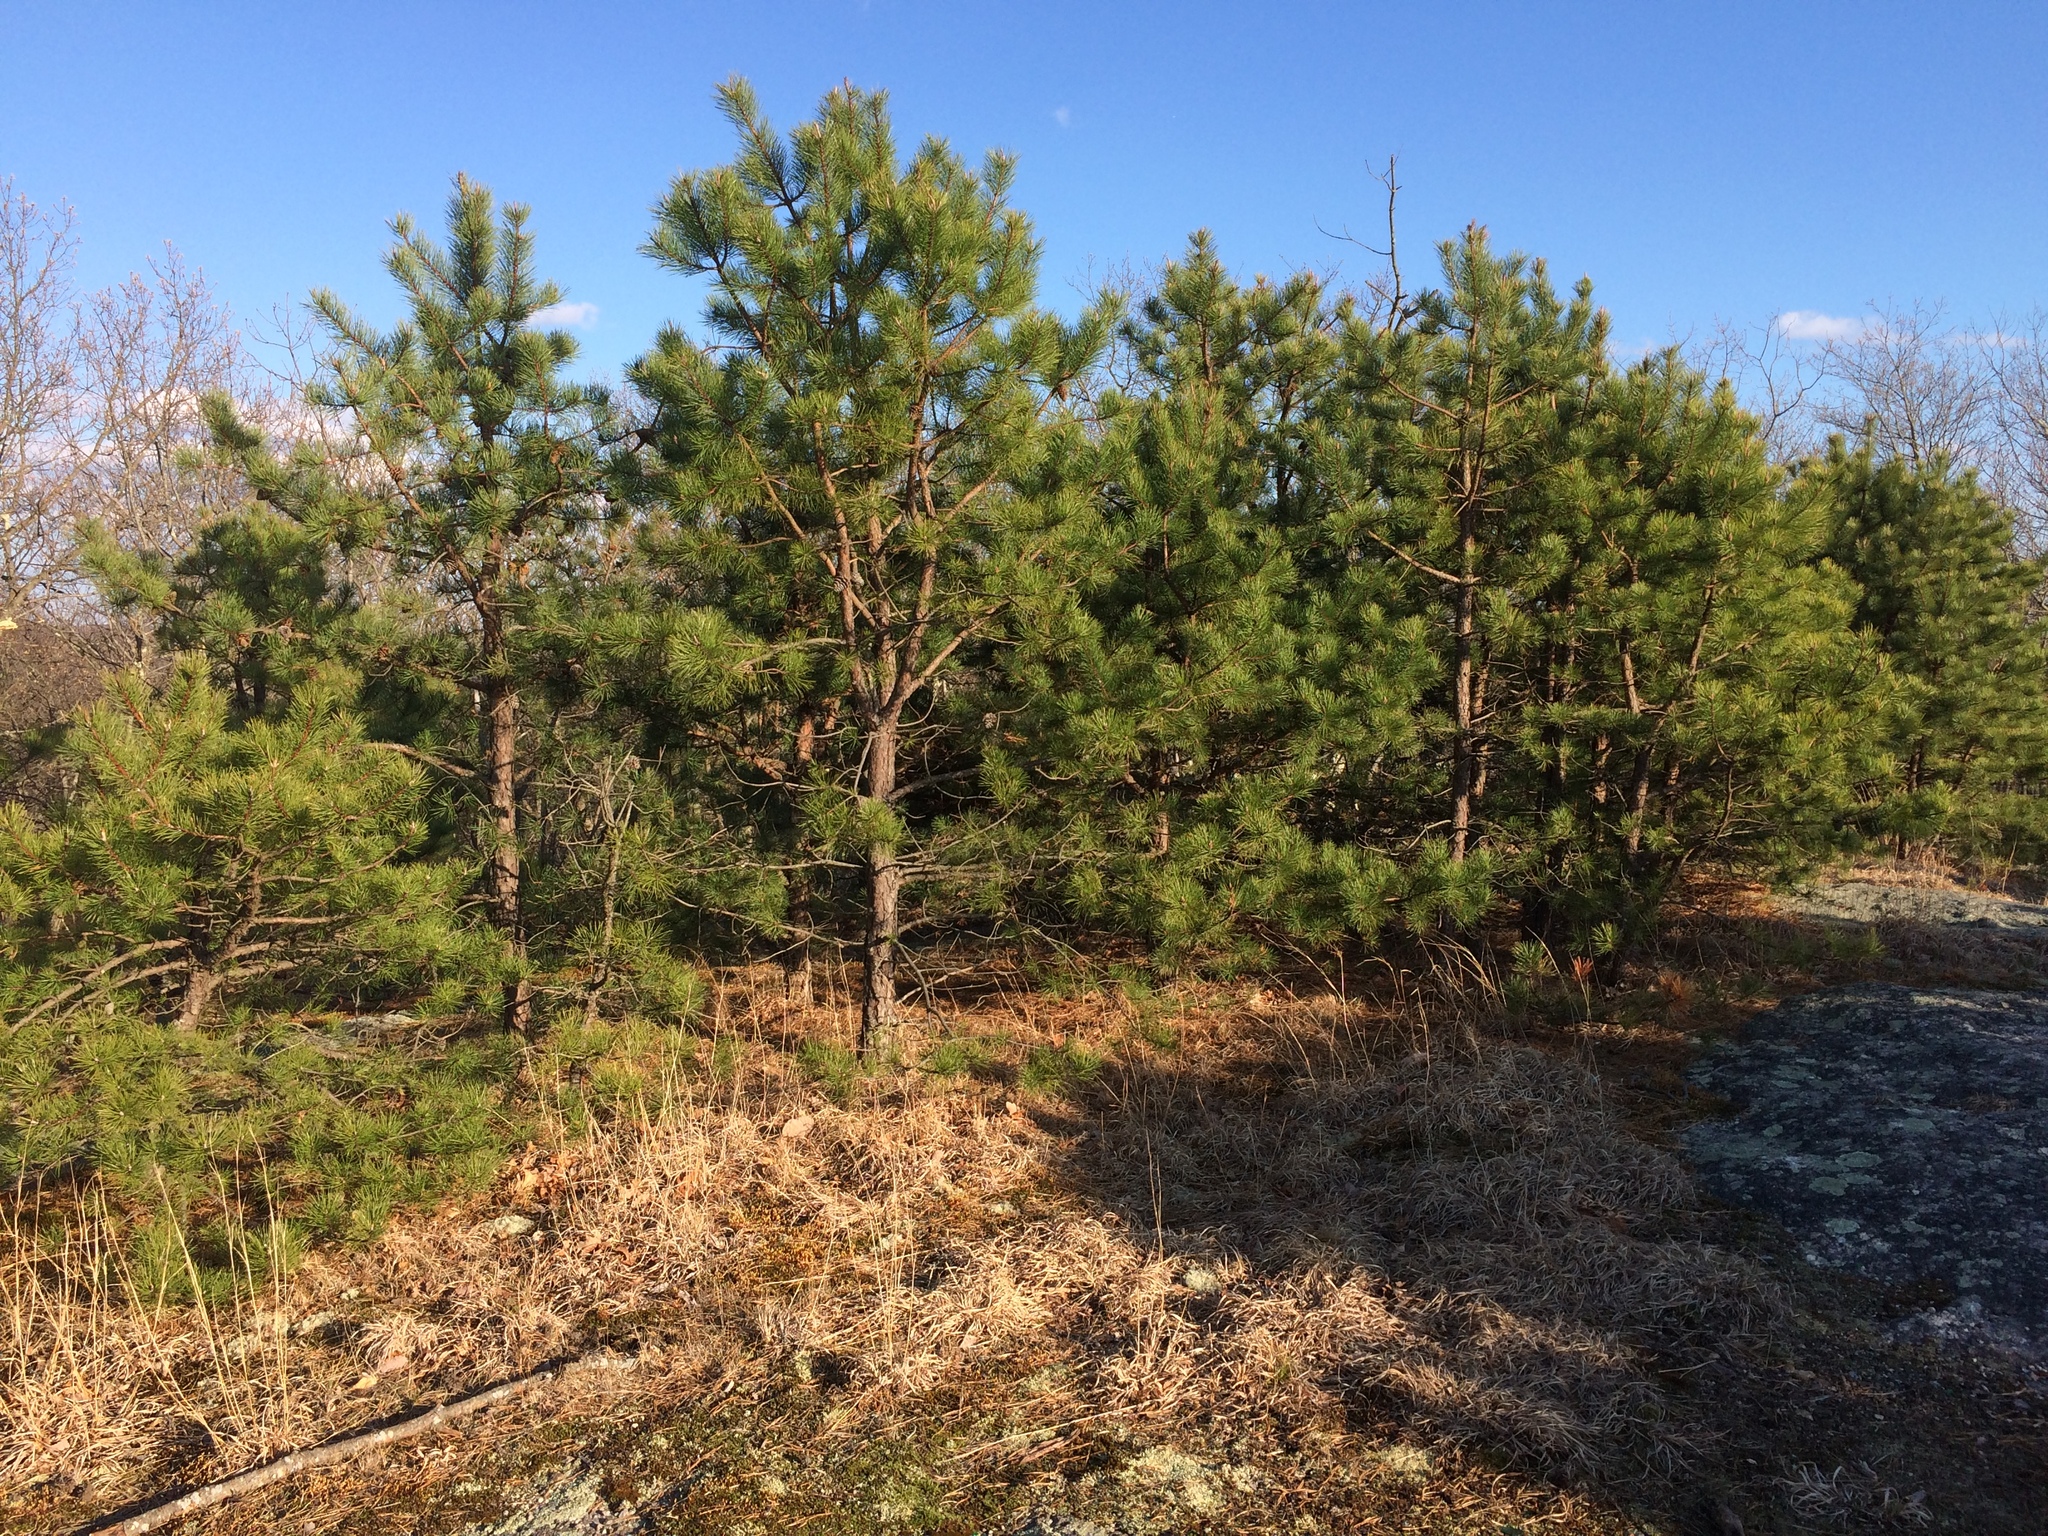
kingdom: Plantae
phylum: Tracheophyta
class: Pinopsida
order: Pinales
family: Pinaceae
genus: Pinus
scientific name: Pinus rigida
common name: Pitch pine
